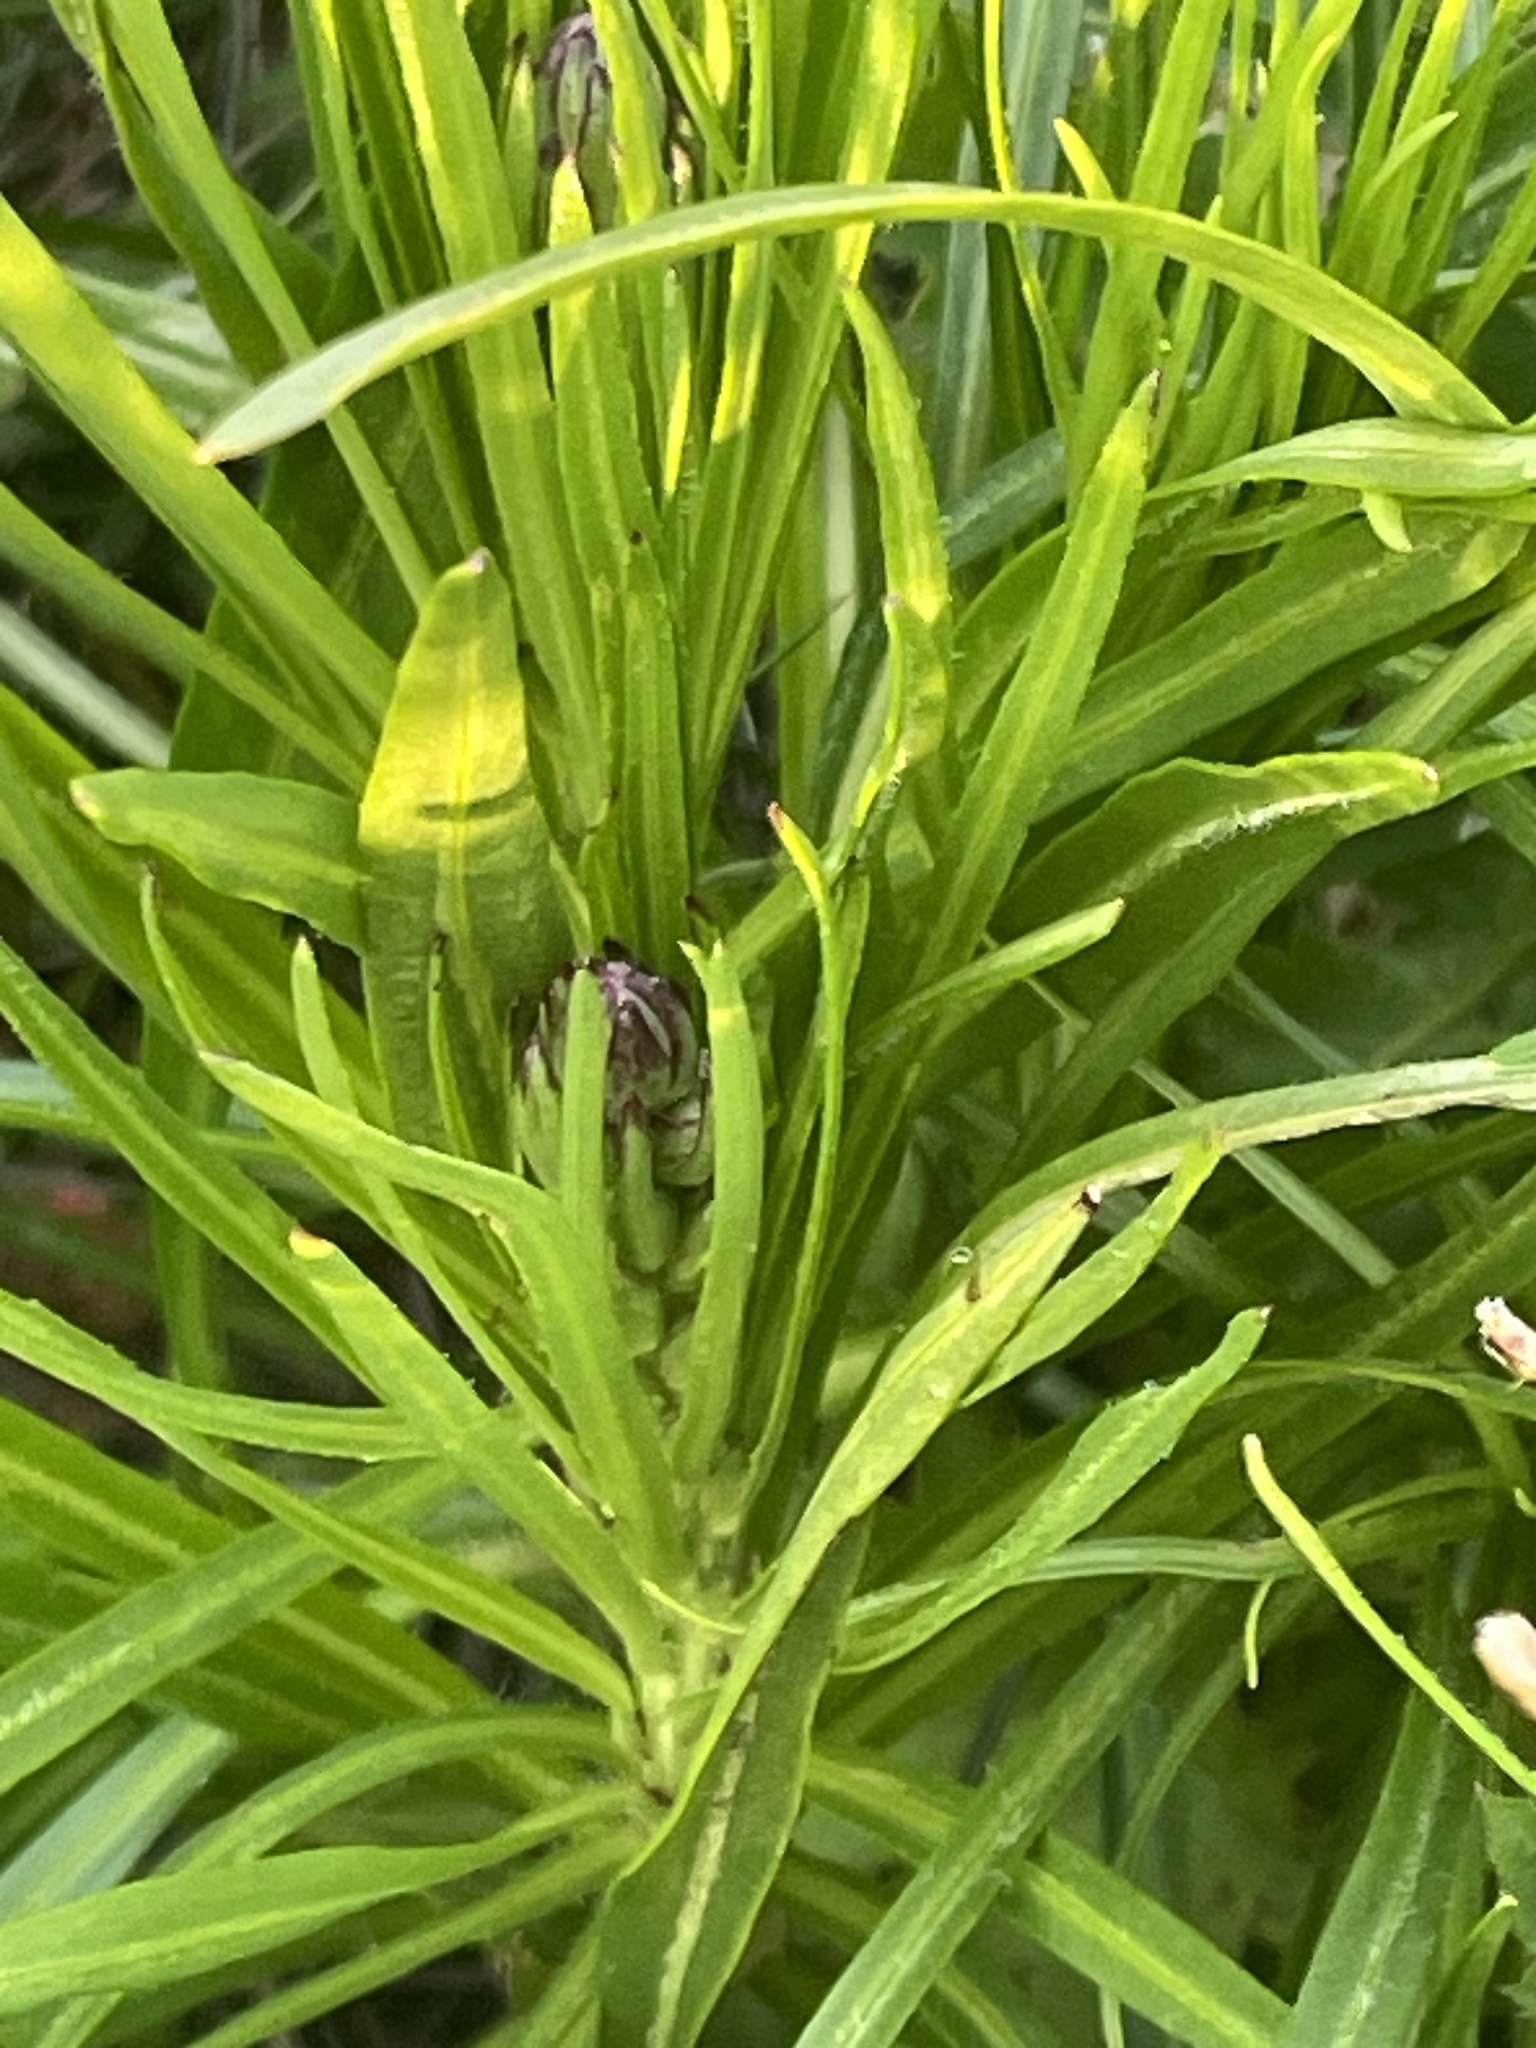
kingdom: Plantae
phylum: Tracheophyta
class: Magnoliopsida
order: Asterales
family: Asteraceae
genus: Liatris
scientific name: Liatris helleri
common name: Heller's blazingstar
